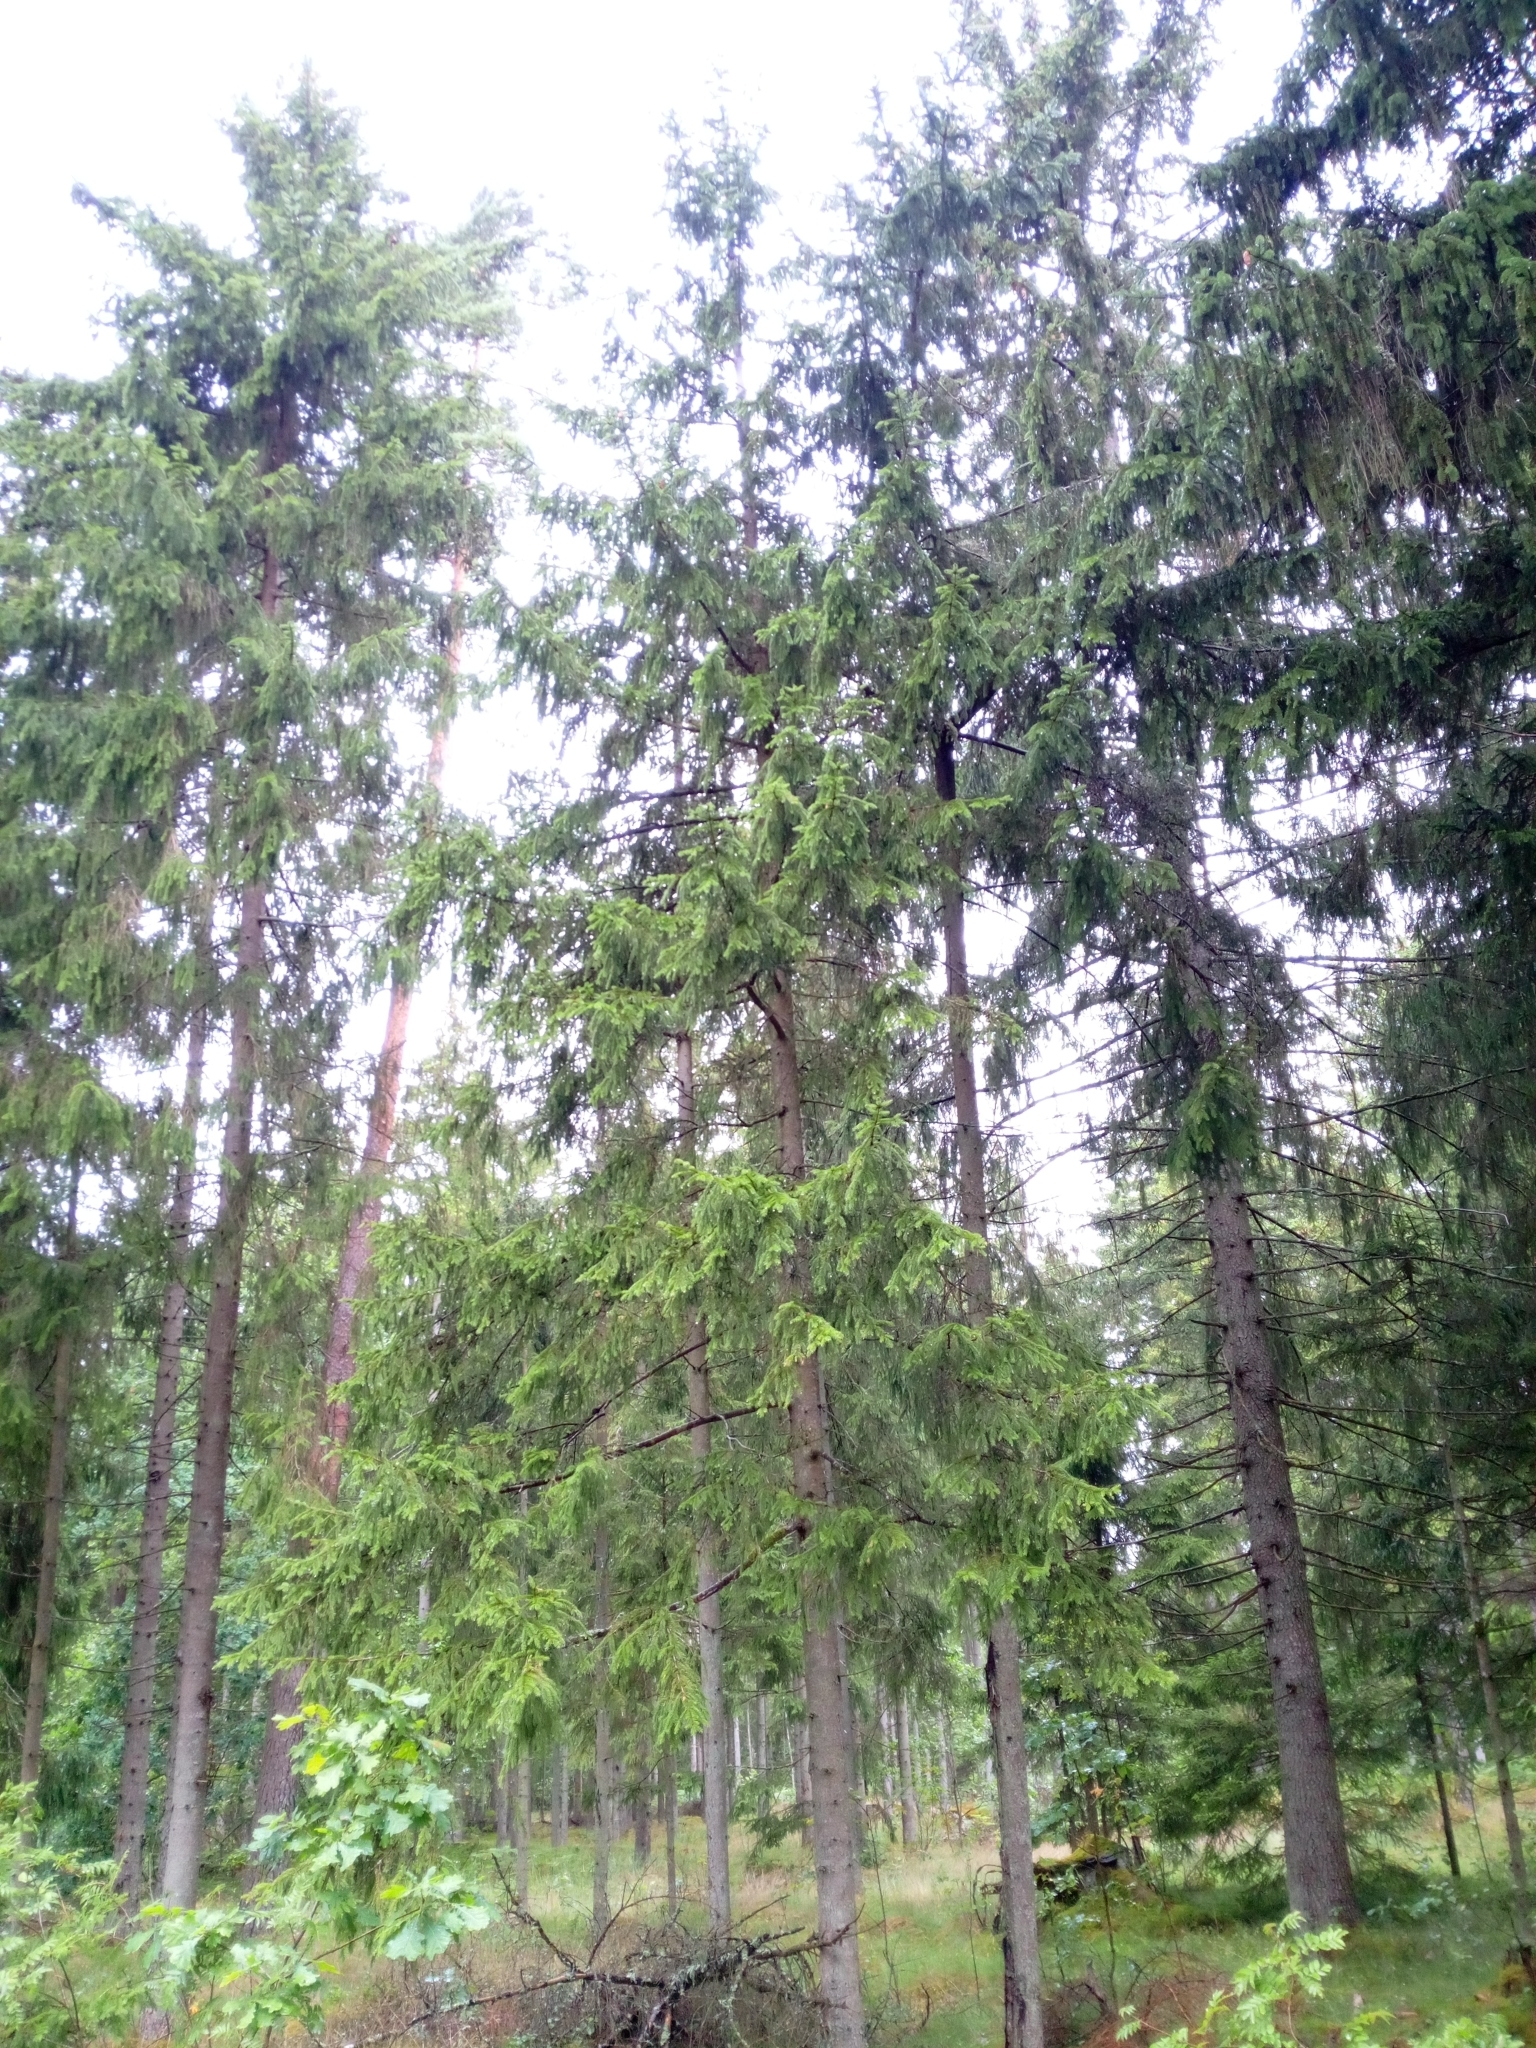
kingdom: Plantae
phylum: Tracheophyta
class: Pinopsida
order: Pinales
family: Pinaceae
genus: Picea
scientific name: Picea abies
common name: Norway spruce
